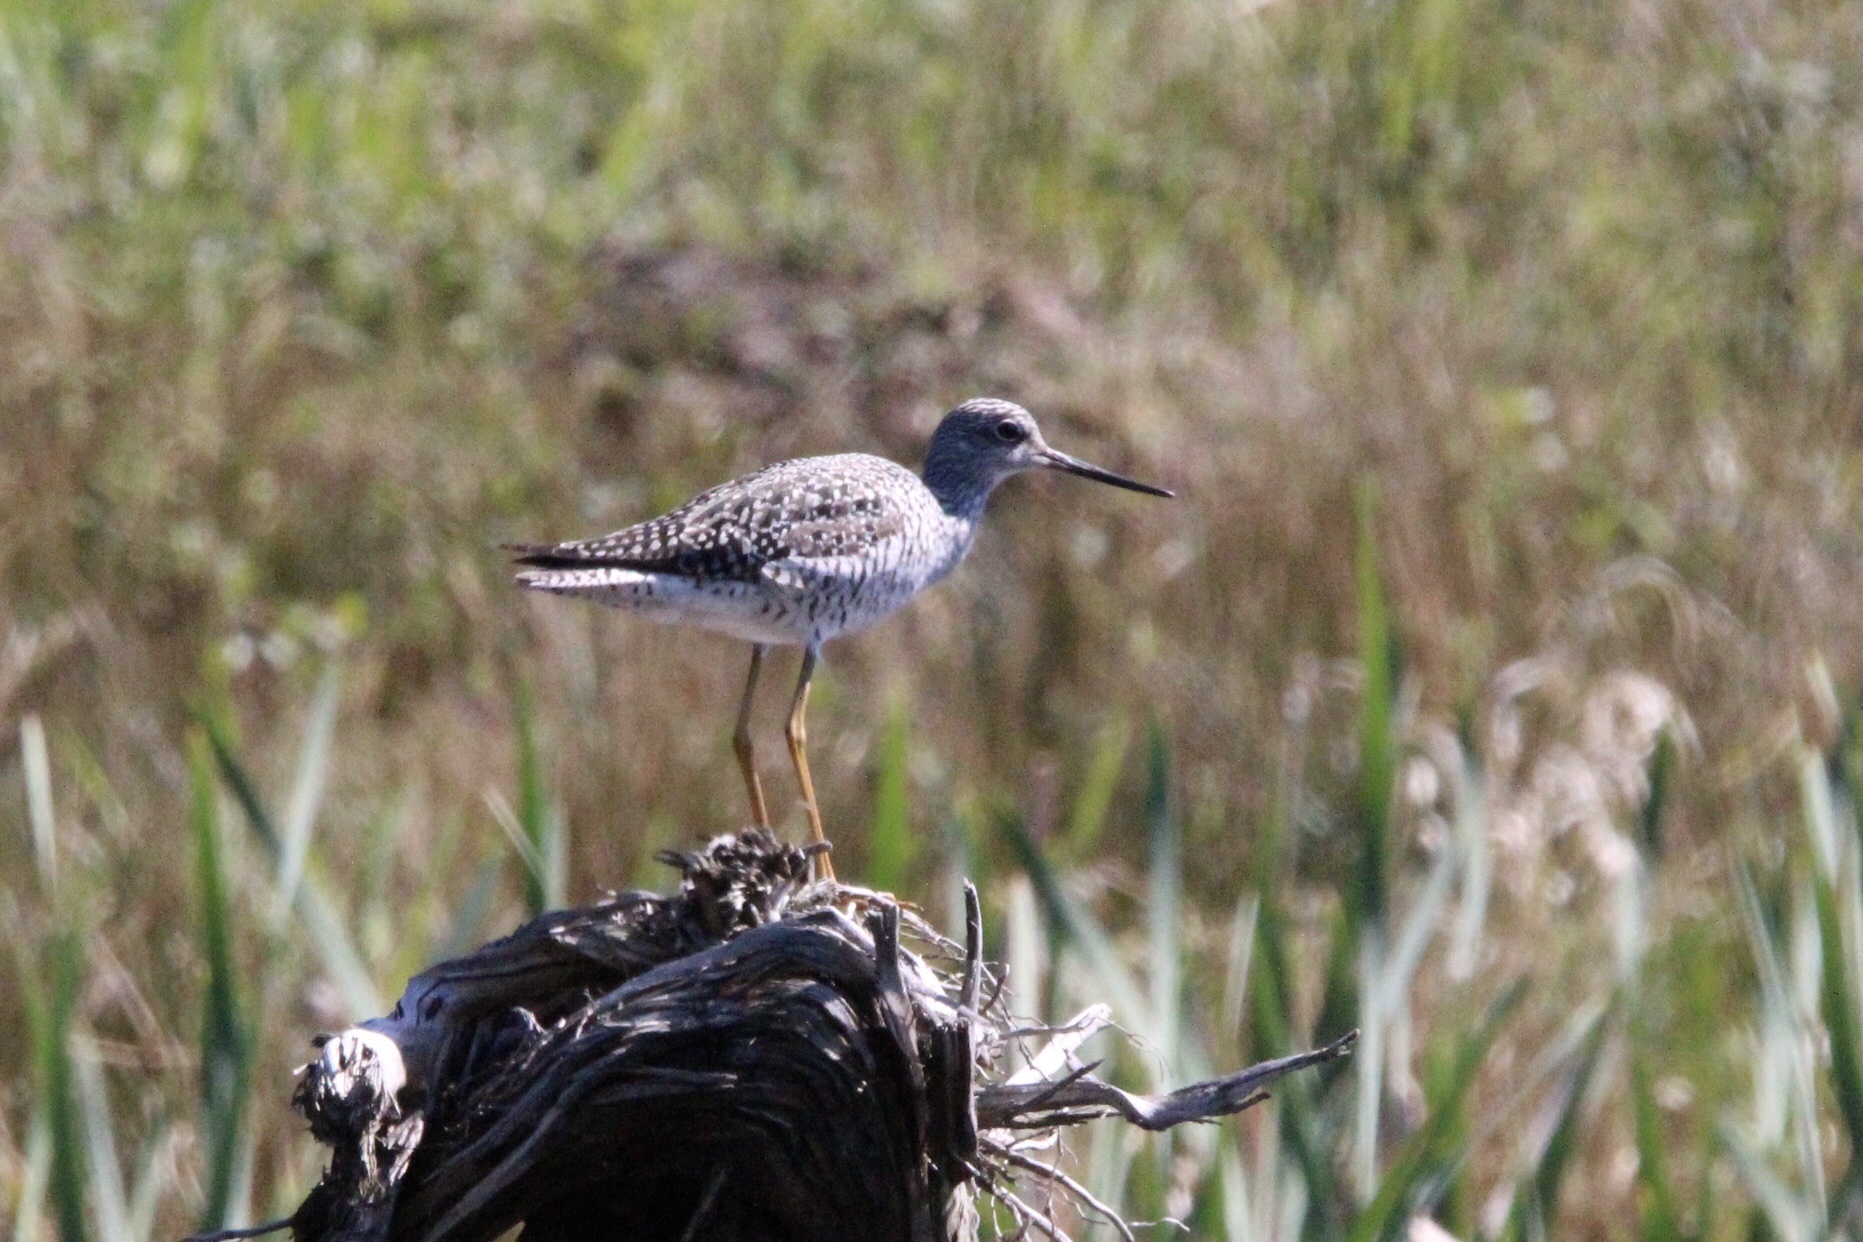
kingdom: Animalia
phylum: Chordata
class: Aves
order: Charadriiformes
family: Scolopacidae
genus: Tringa
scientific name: Tringa melanoleuca
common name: Greater yellowlegs
